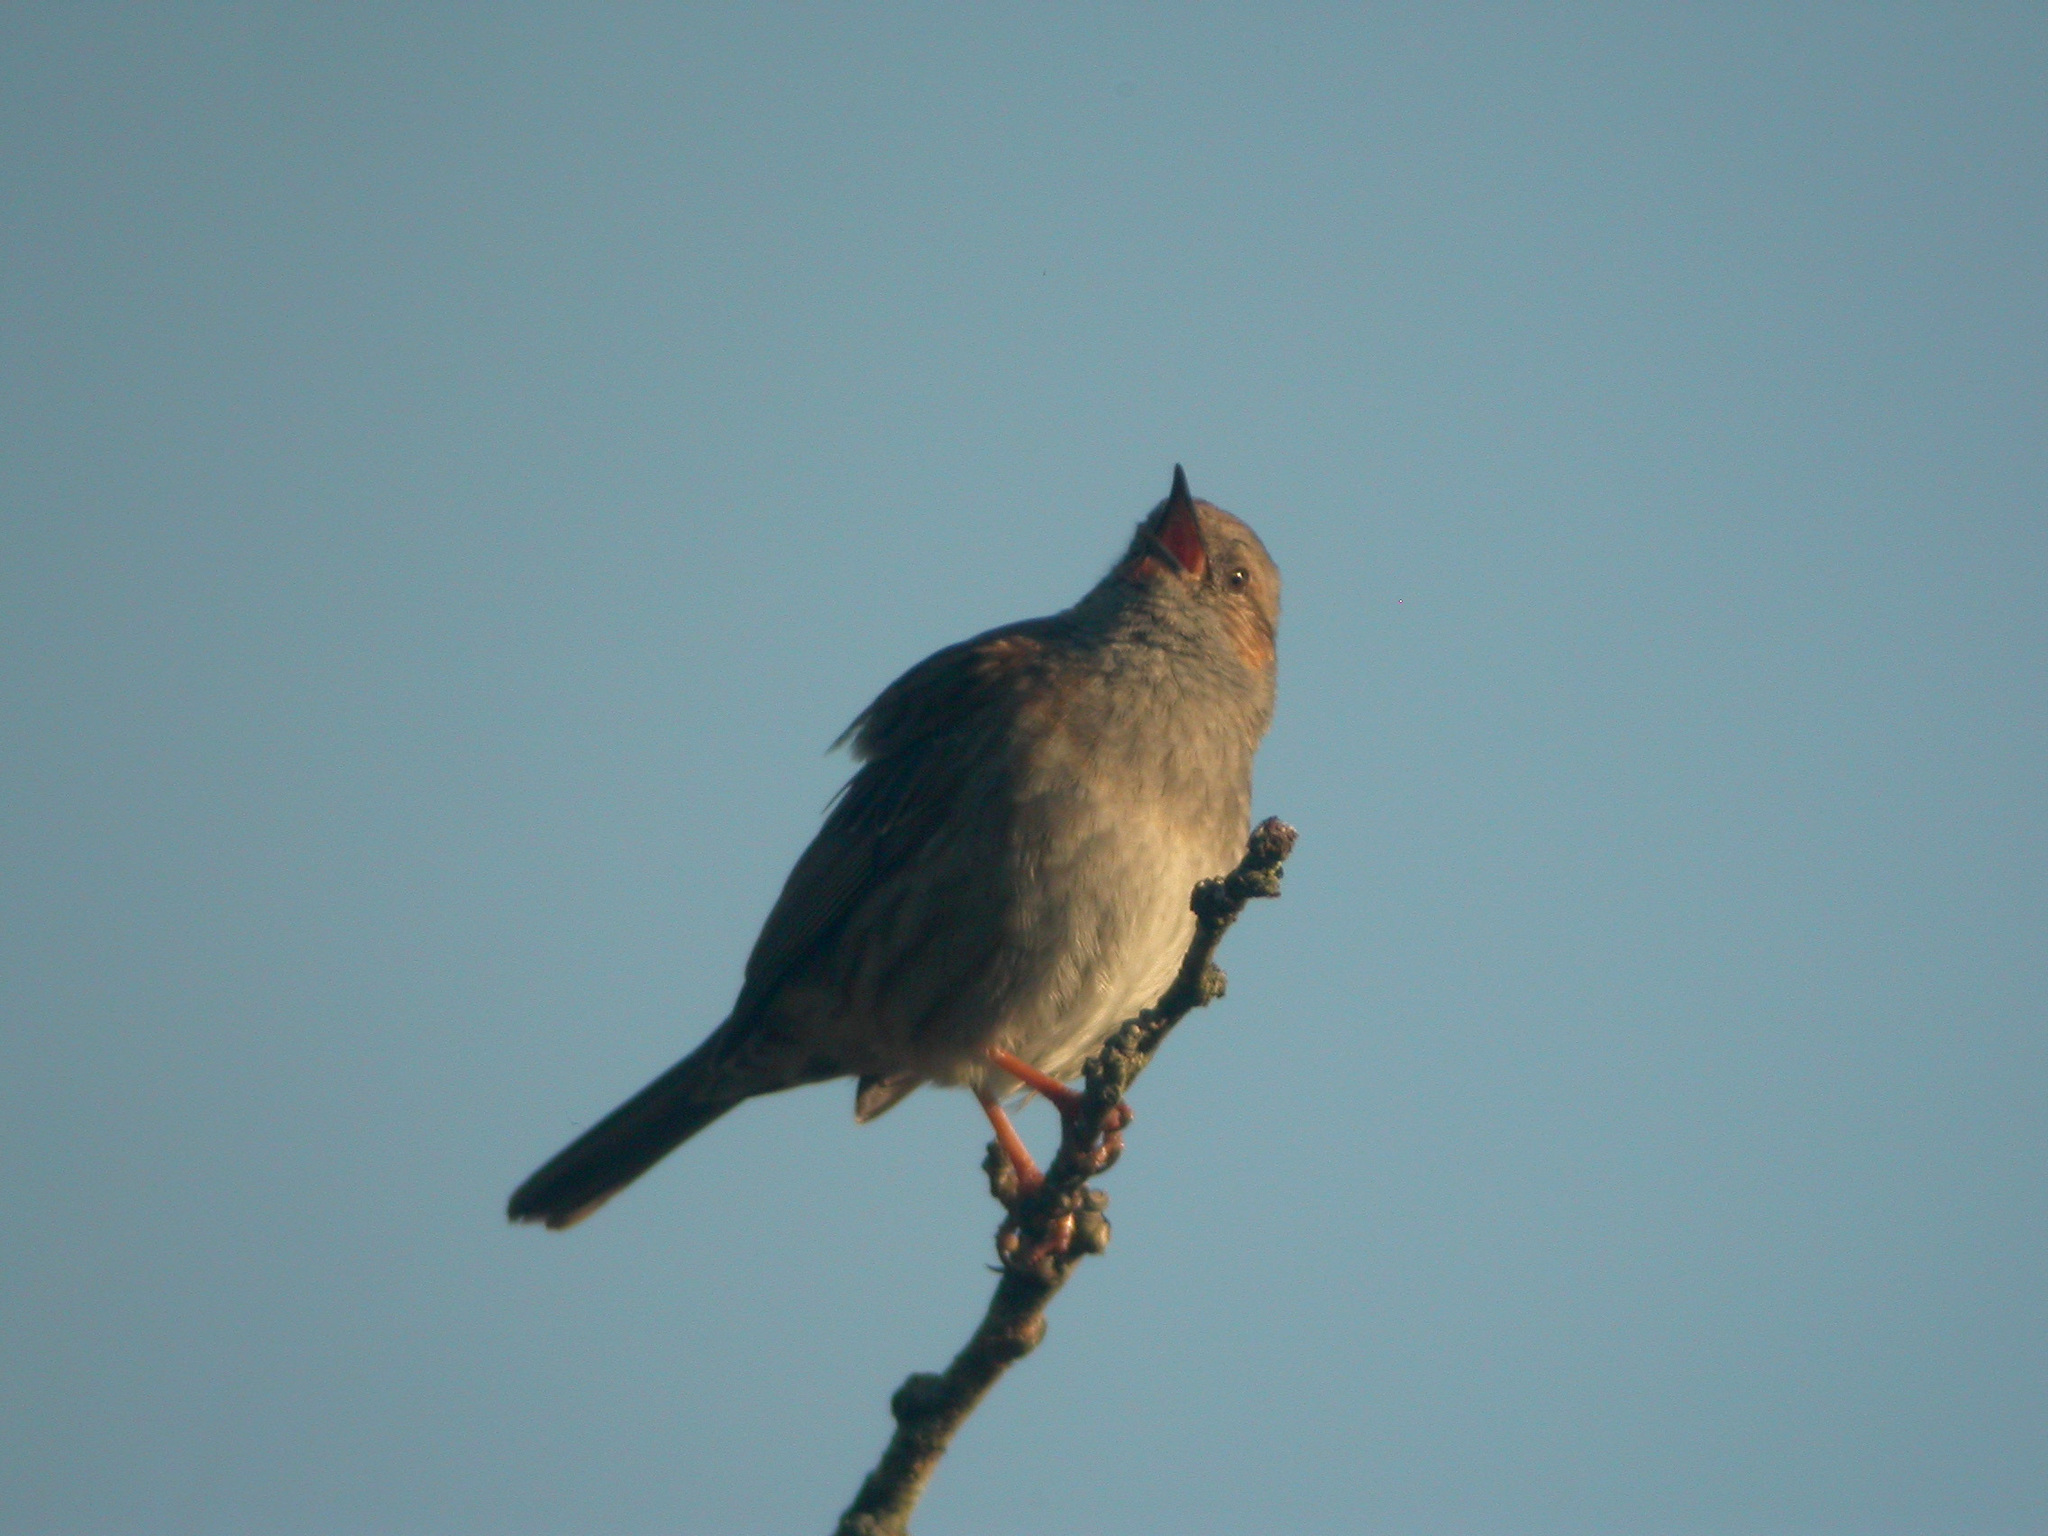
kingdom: Animalia
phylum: Chordata
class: Aves
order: Passeriformes
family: Prunellidae
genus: Prunella
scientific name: Prunella modularis
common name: Dunnock
